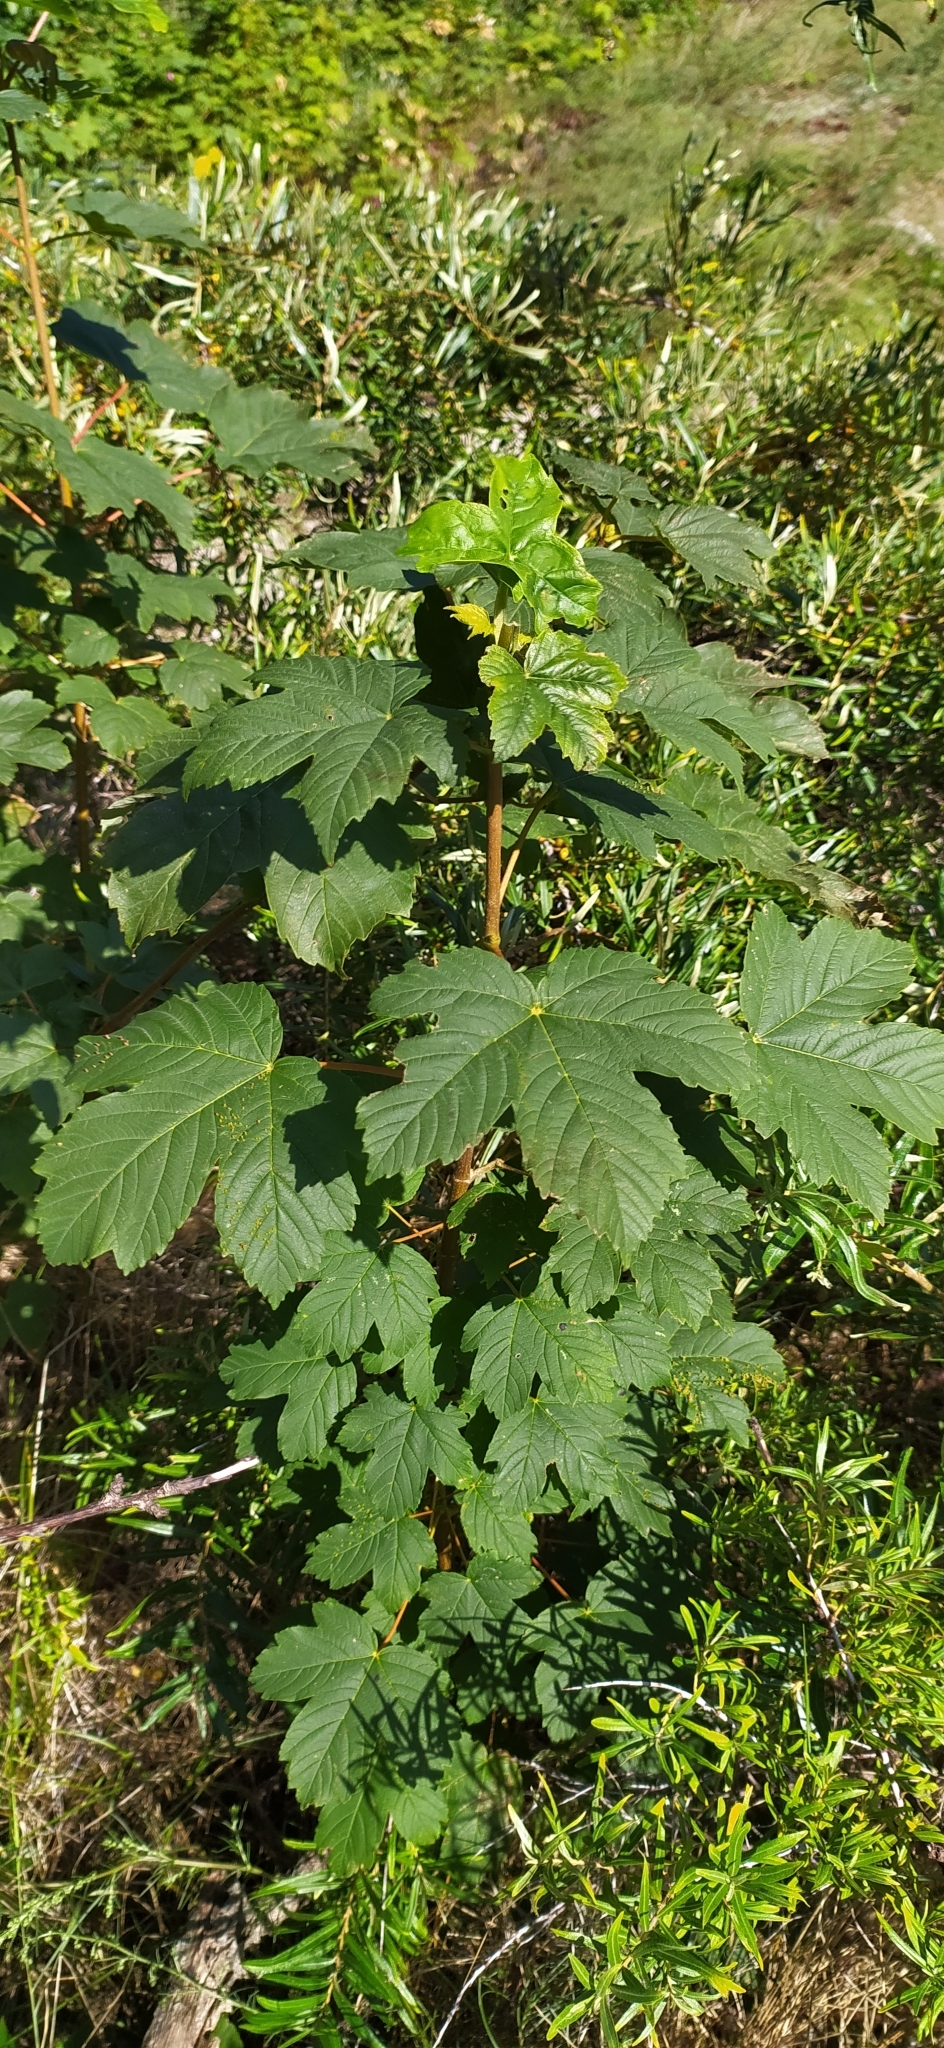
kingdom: Plantae
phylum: Tracheophyta
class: Magnoliopsida
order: Sapindales
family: Sapindaceae
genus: Acer
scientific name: Acer pseudoplatanus
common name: Sycamore
